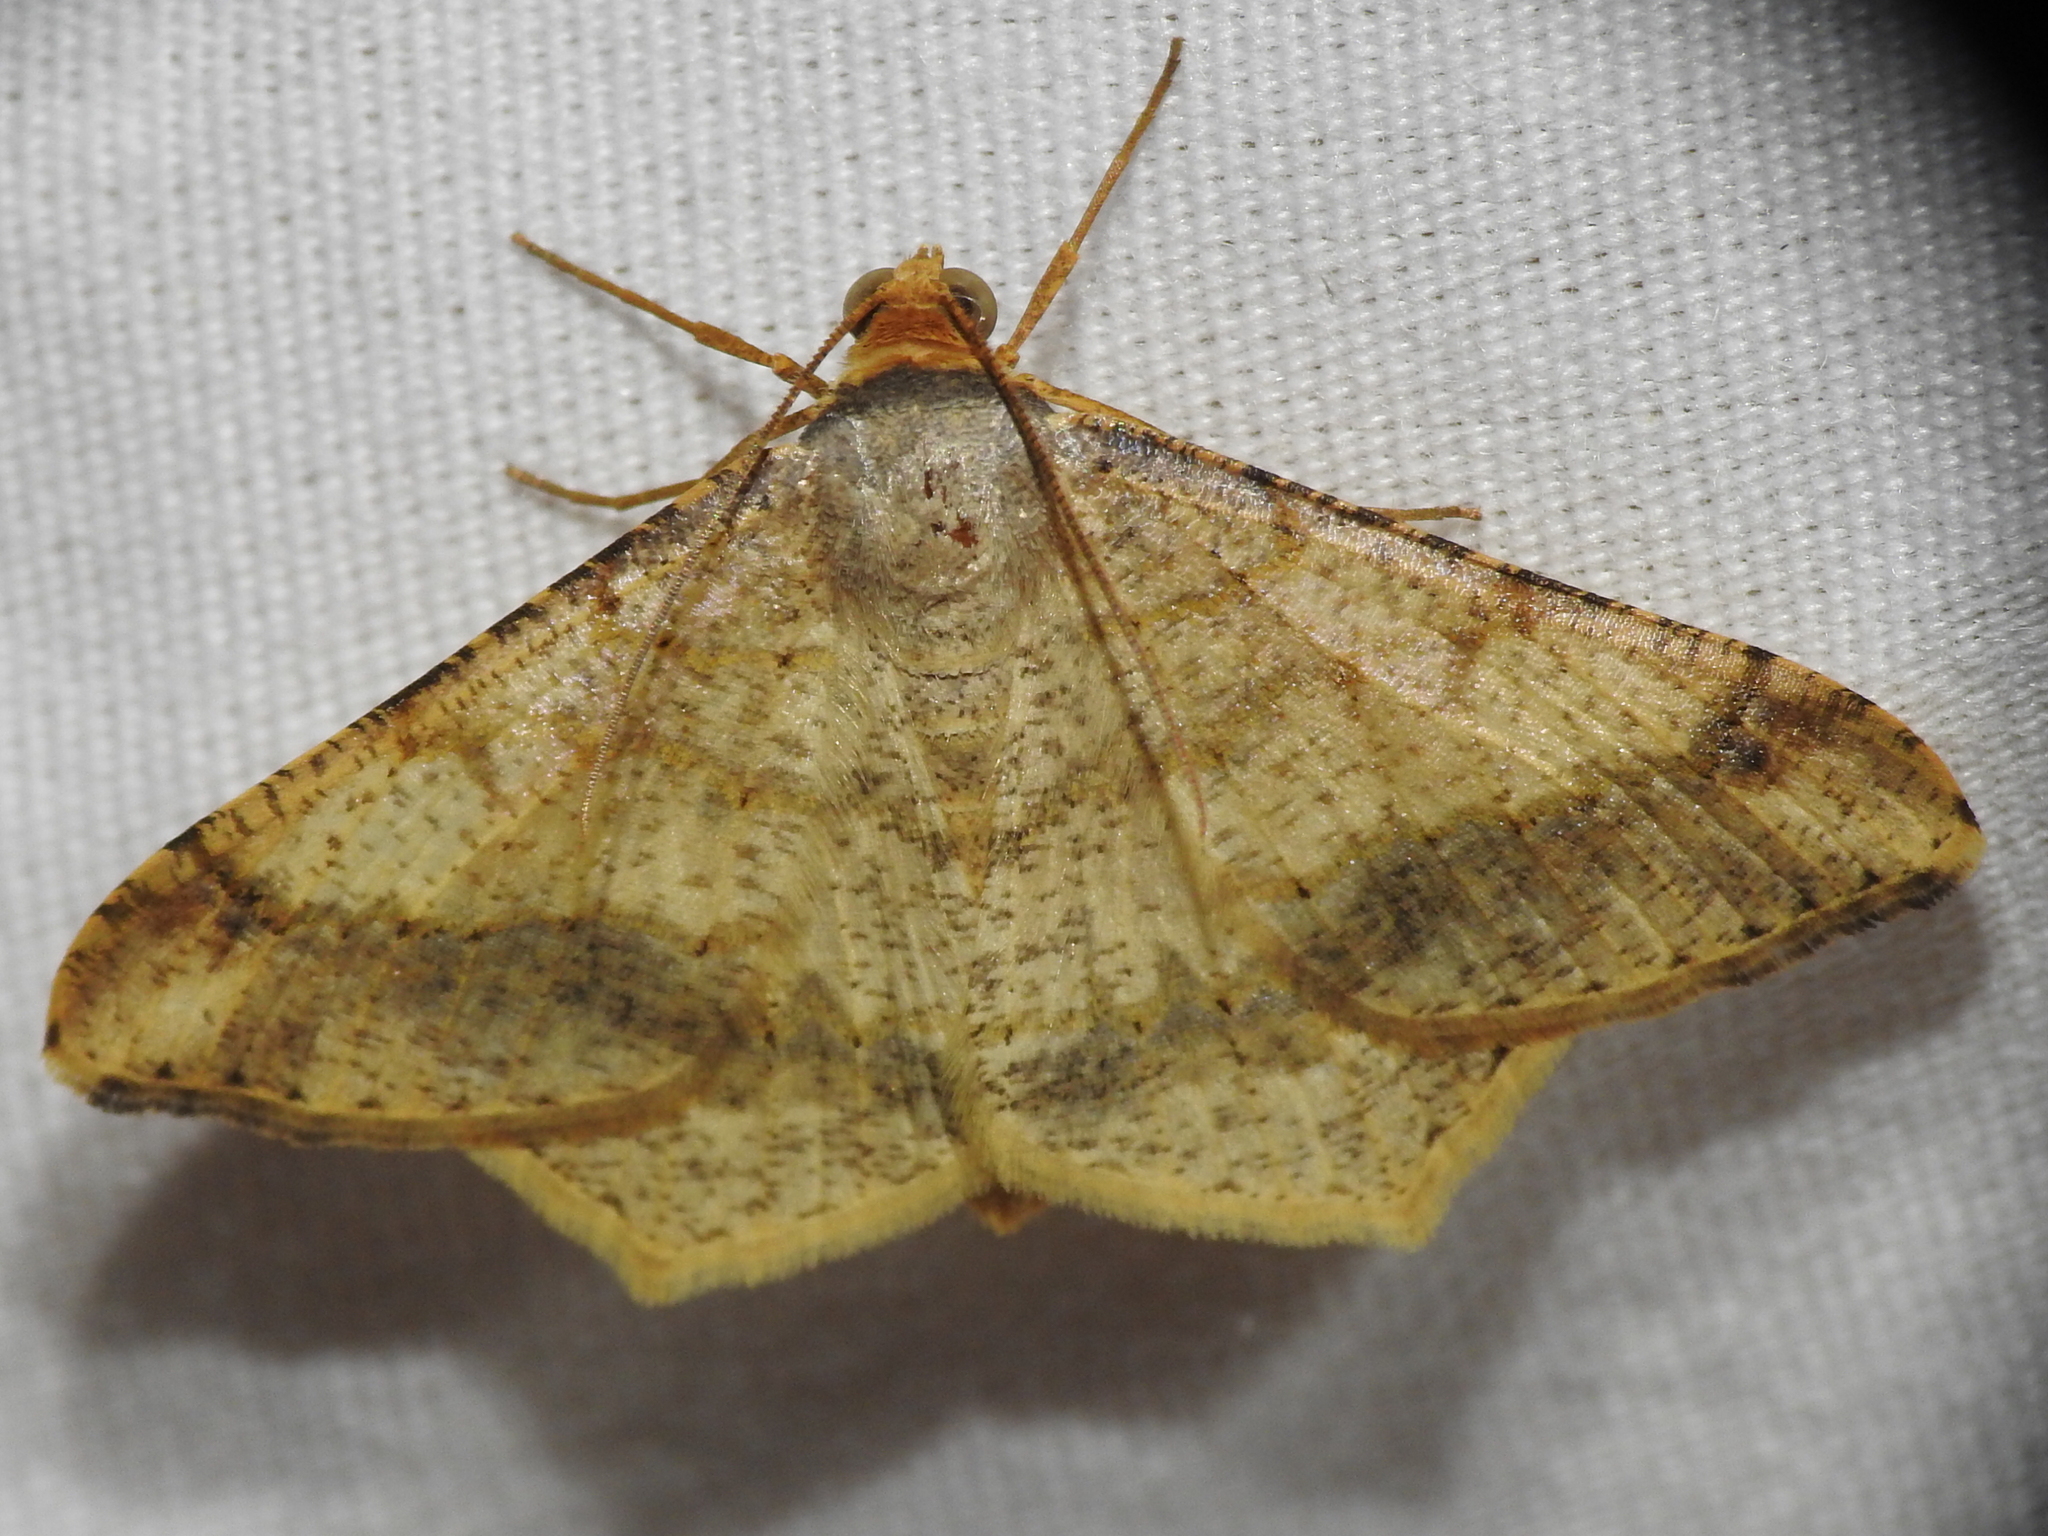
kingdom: Animalia
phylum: Arthropoda
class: Insecta
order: Lepidoptera
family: Geometridae
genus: Macaria
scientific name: Macaria abydata
